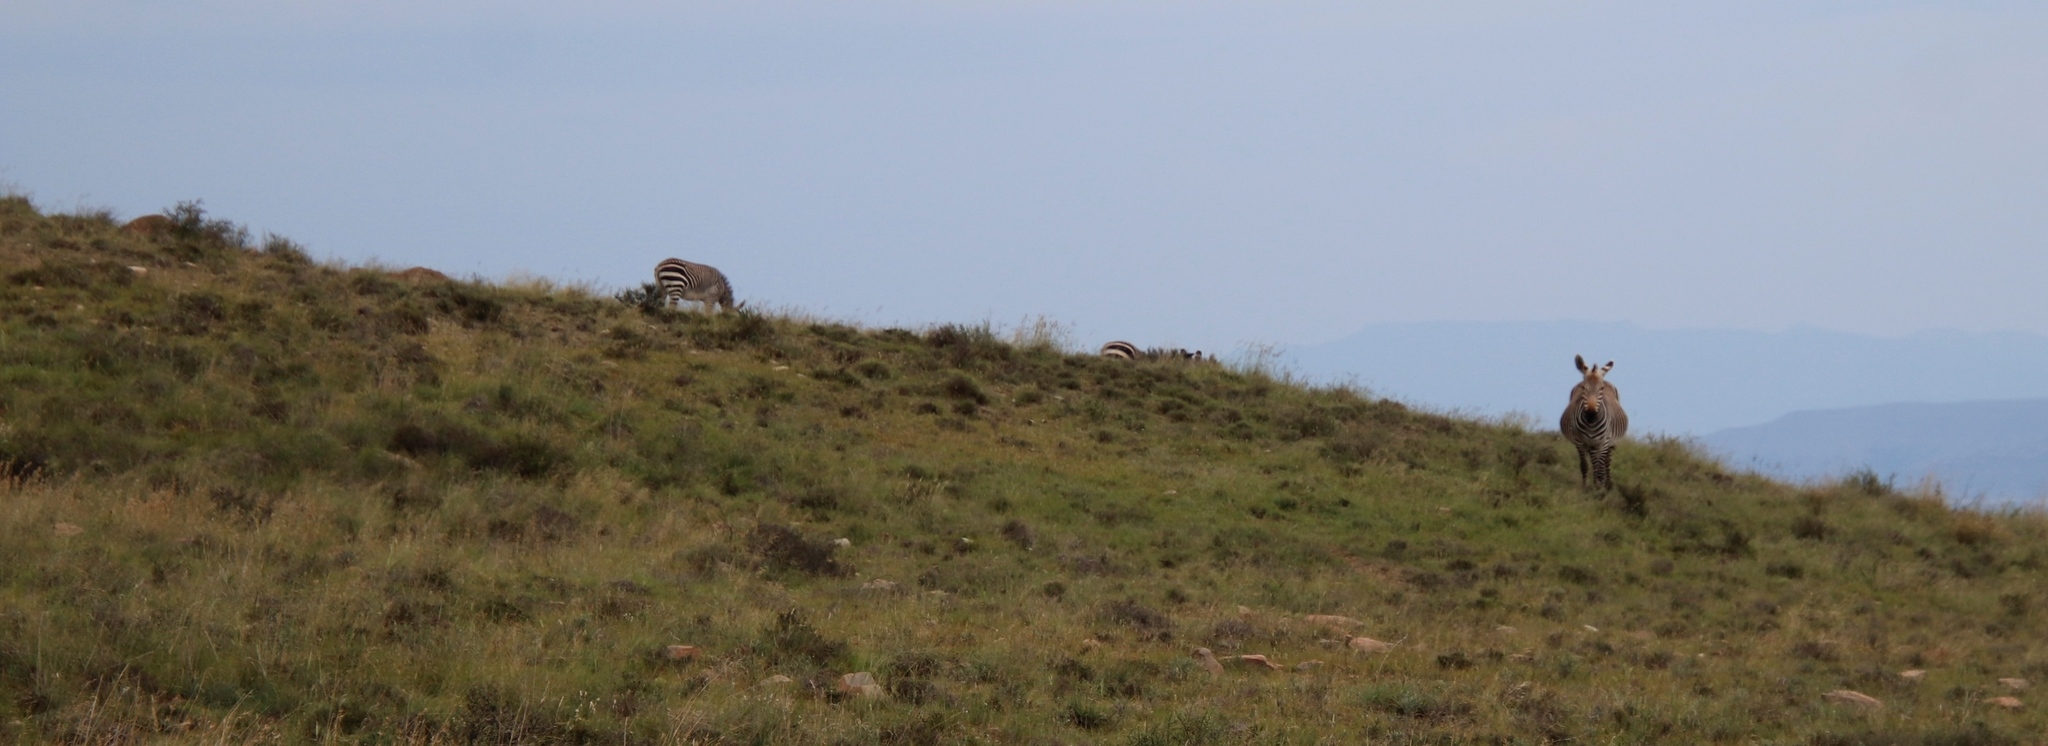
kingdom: Animalia
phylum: Chordata
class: Mammalia
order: Perissodactyla
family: Equidae
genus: Equus
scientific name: Equus zebra
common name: Mountain zebra
